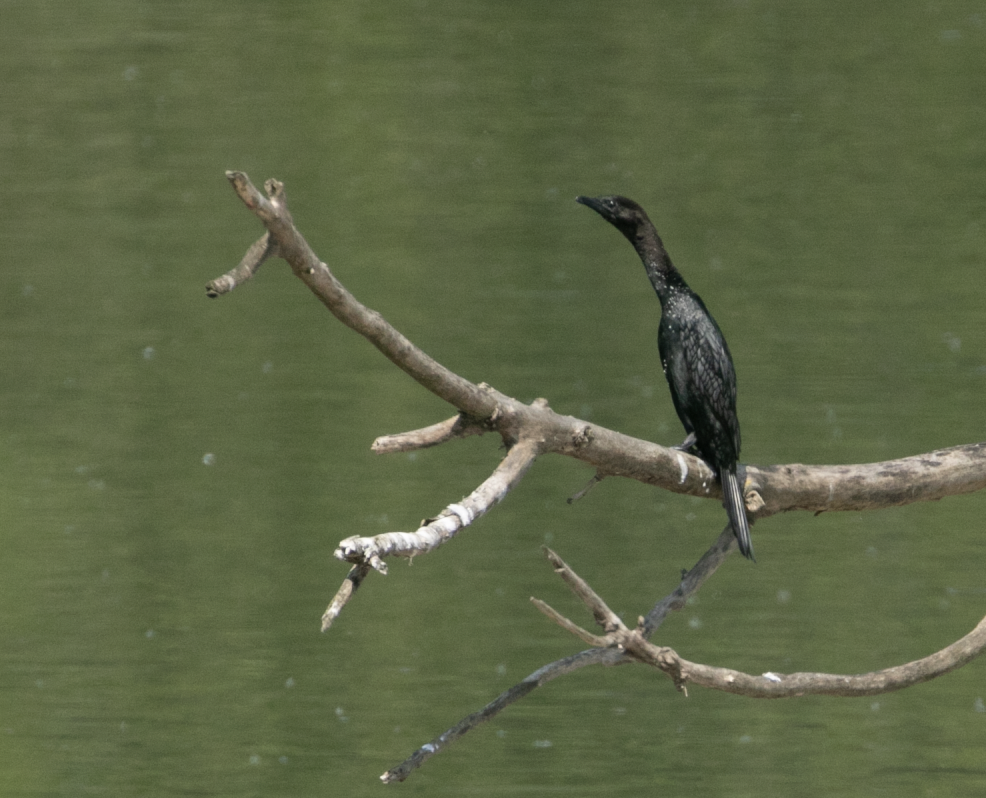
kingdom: Animalia
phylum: Chordata
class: Aves
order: Suliformes
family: Phalacrocoracidae
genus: Microcarbo
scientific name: Microcarbo pygmaeus
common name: Pygmy cormorant
